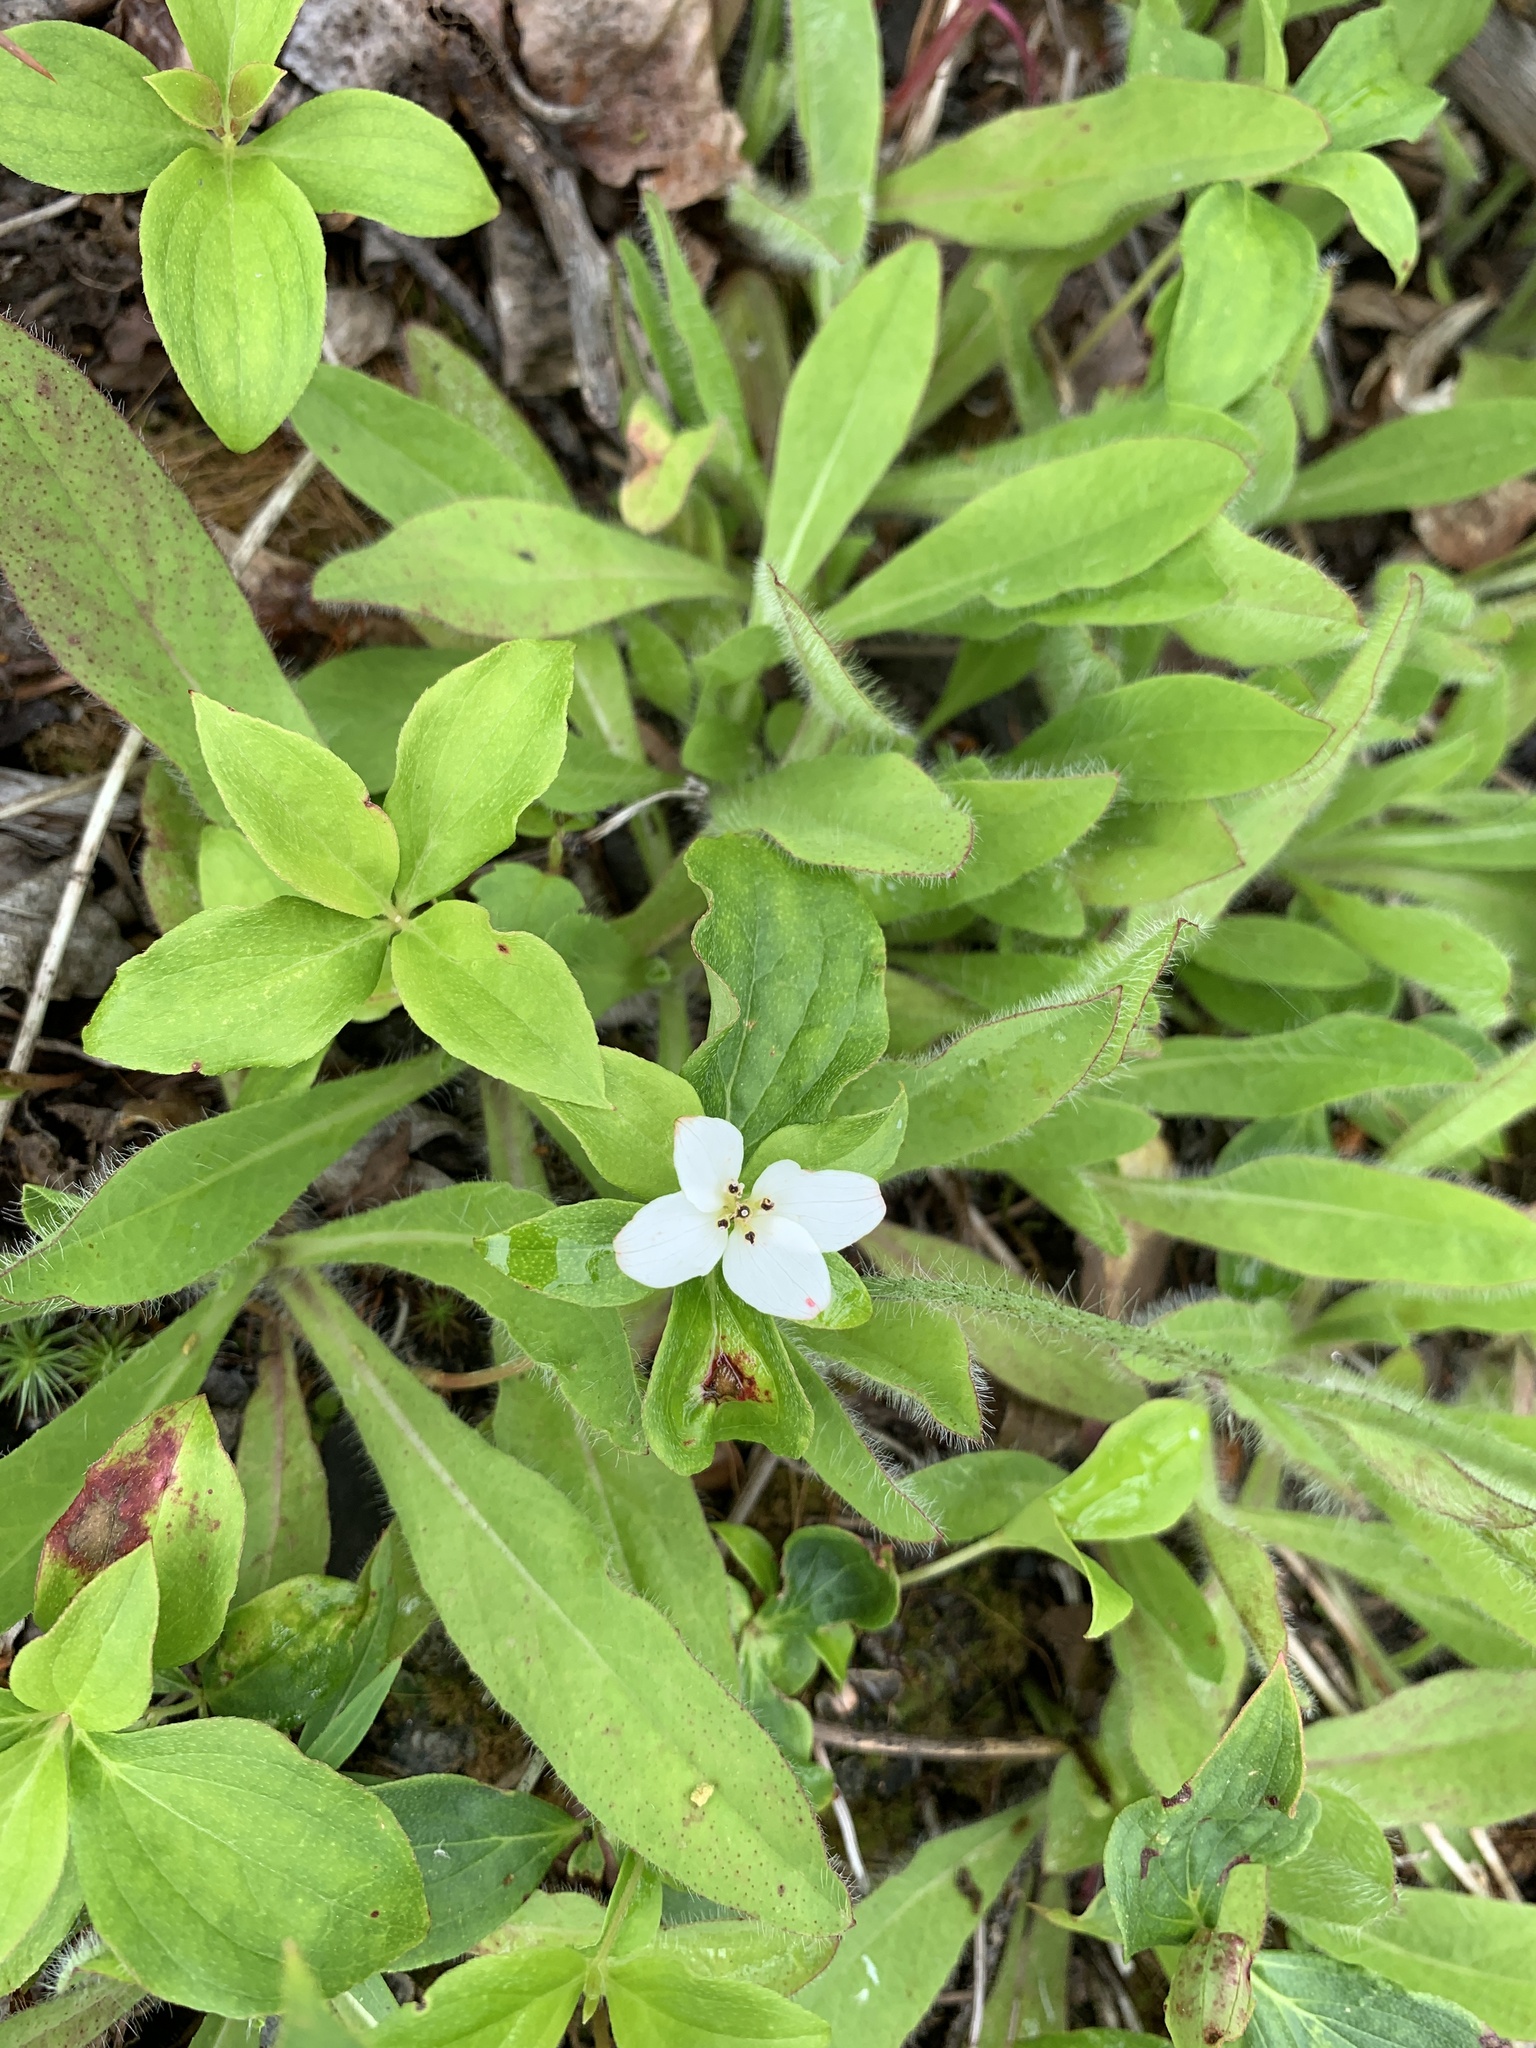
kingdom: Plantae
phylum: Tracheophyta
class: Magnoliopsida
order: Cornales
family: Cornaceae
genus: Cornus
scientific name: Cornus canadensis
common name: Creeping dogwood
